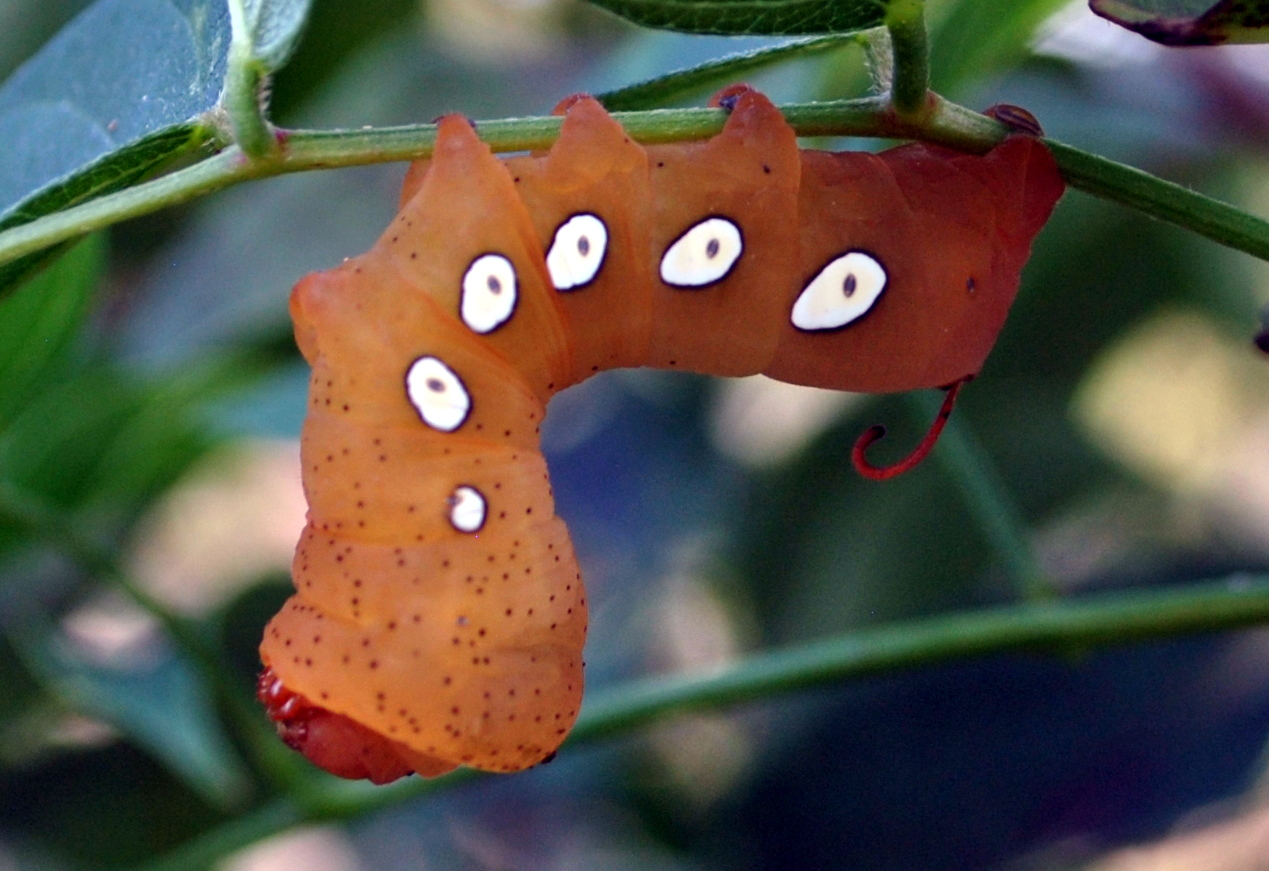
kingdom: Animalia
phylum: Arthropoda
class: Insecta
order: Lepidoptera
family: Sphingidae
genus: Eumorpha
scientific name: Eumorpha pandorus
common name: Pandora sphinx
